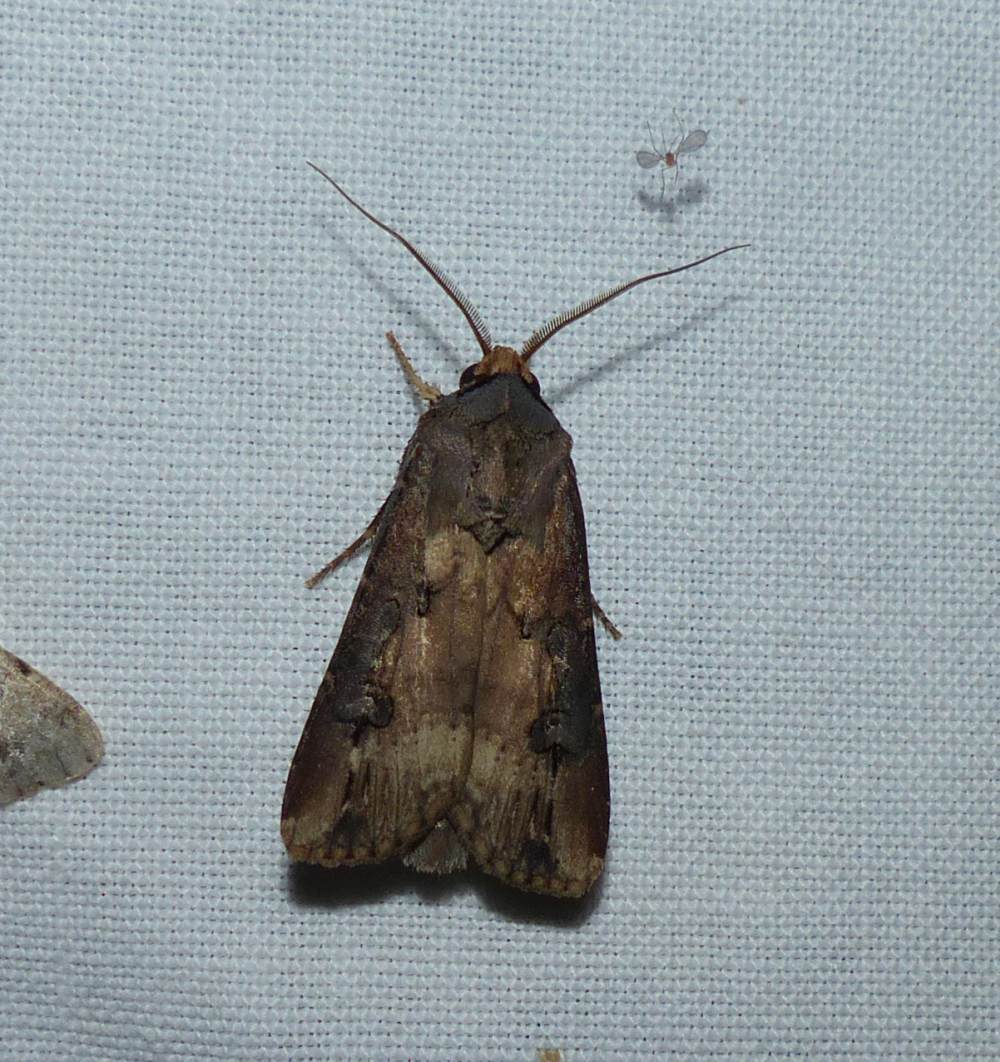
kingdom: Animalia
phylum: Arthropoda
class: Insecta
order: Lepidoptera
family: Noctuidae
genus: Agrotis
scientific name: Agrotis ipsilon
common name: Dark sword-grass
